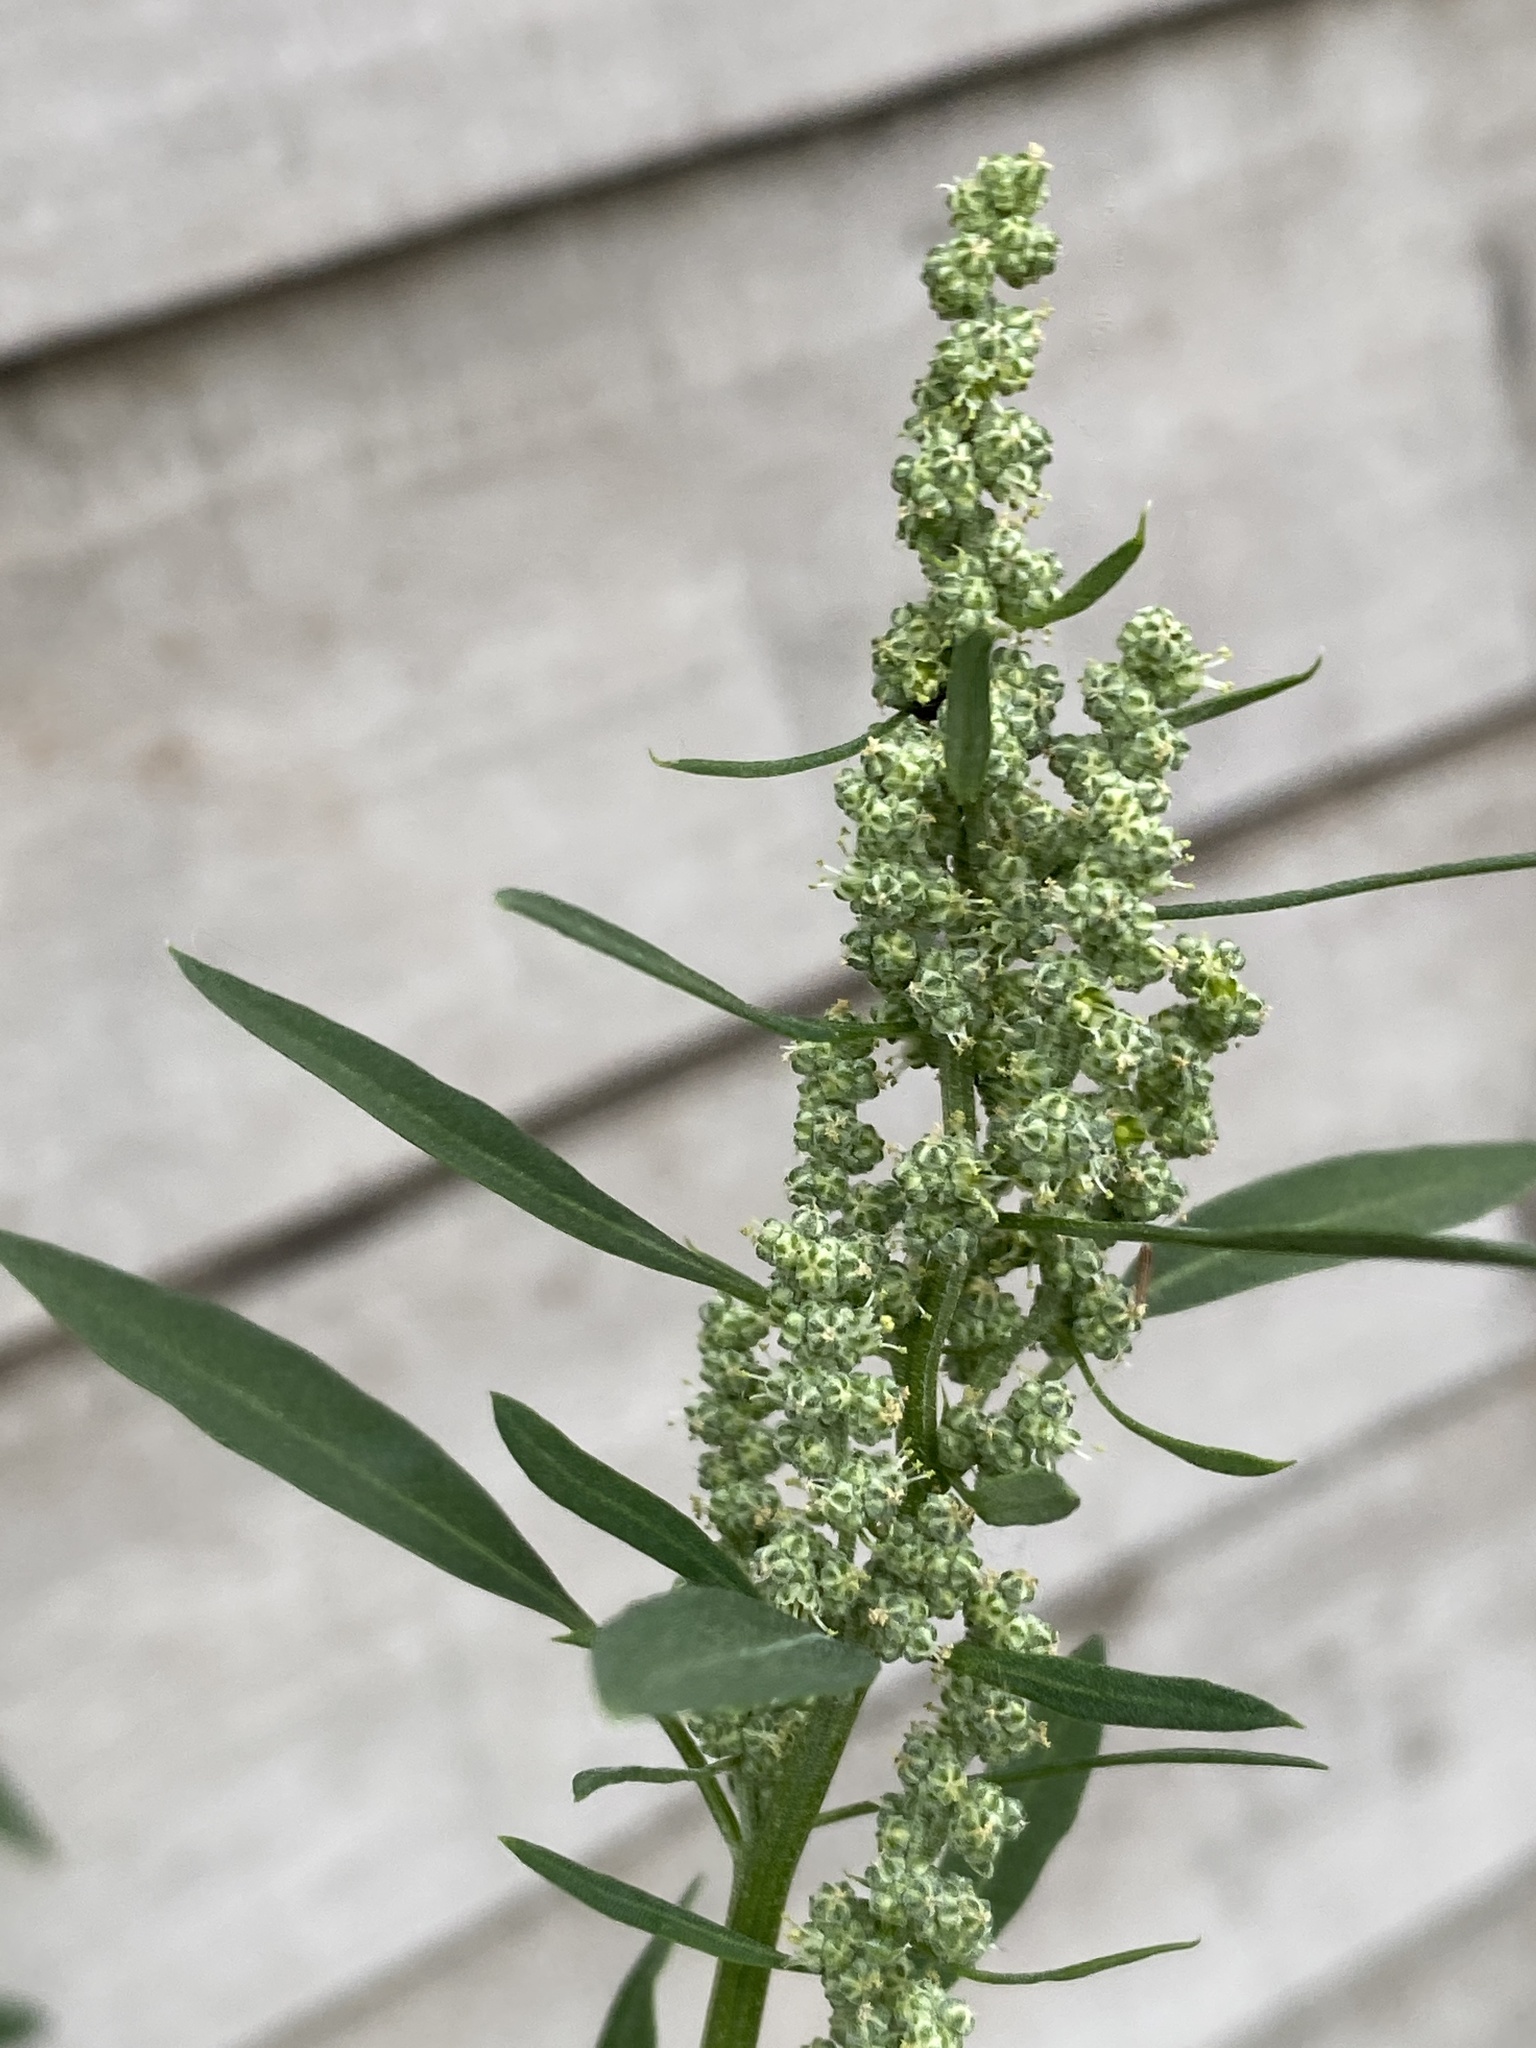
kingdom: Plantae
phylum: Tracheophyta
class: Magnoliopsida
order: Caryophyllales
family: Amaranthaceae
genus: Chenopodium
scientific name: Chenopodium album
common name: Fat-hen
